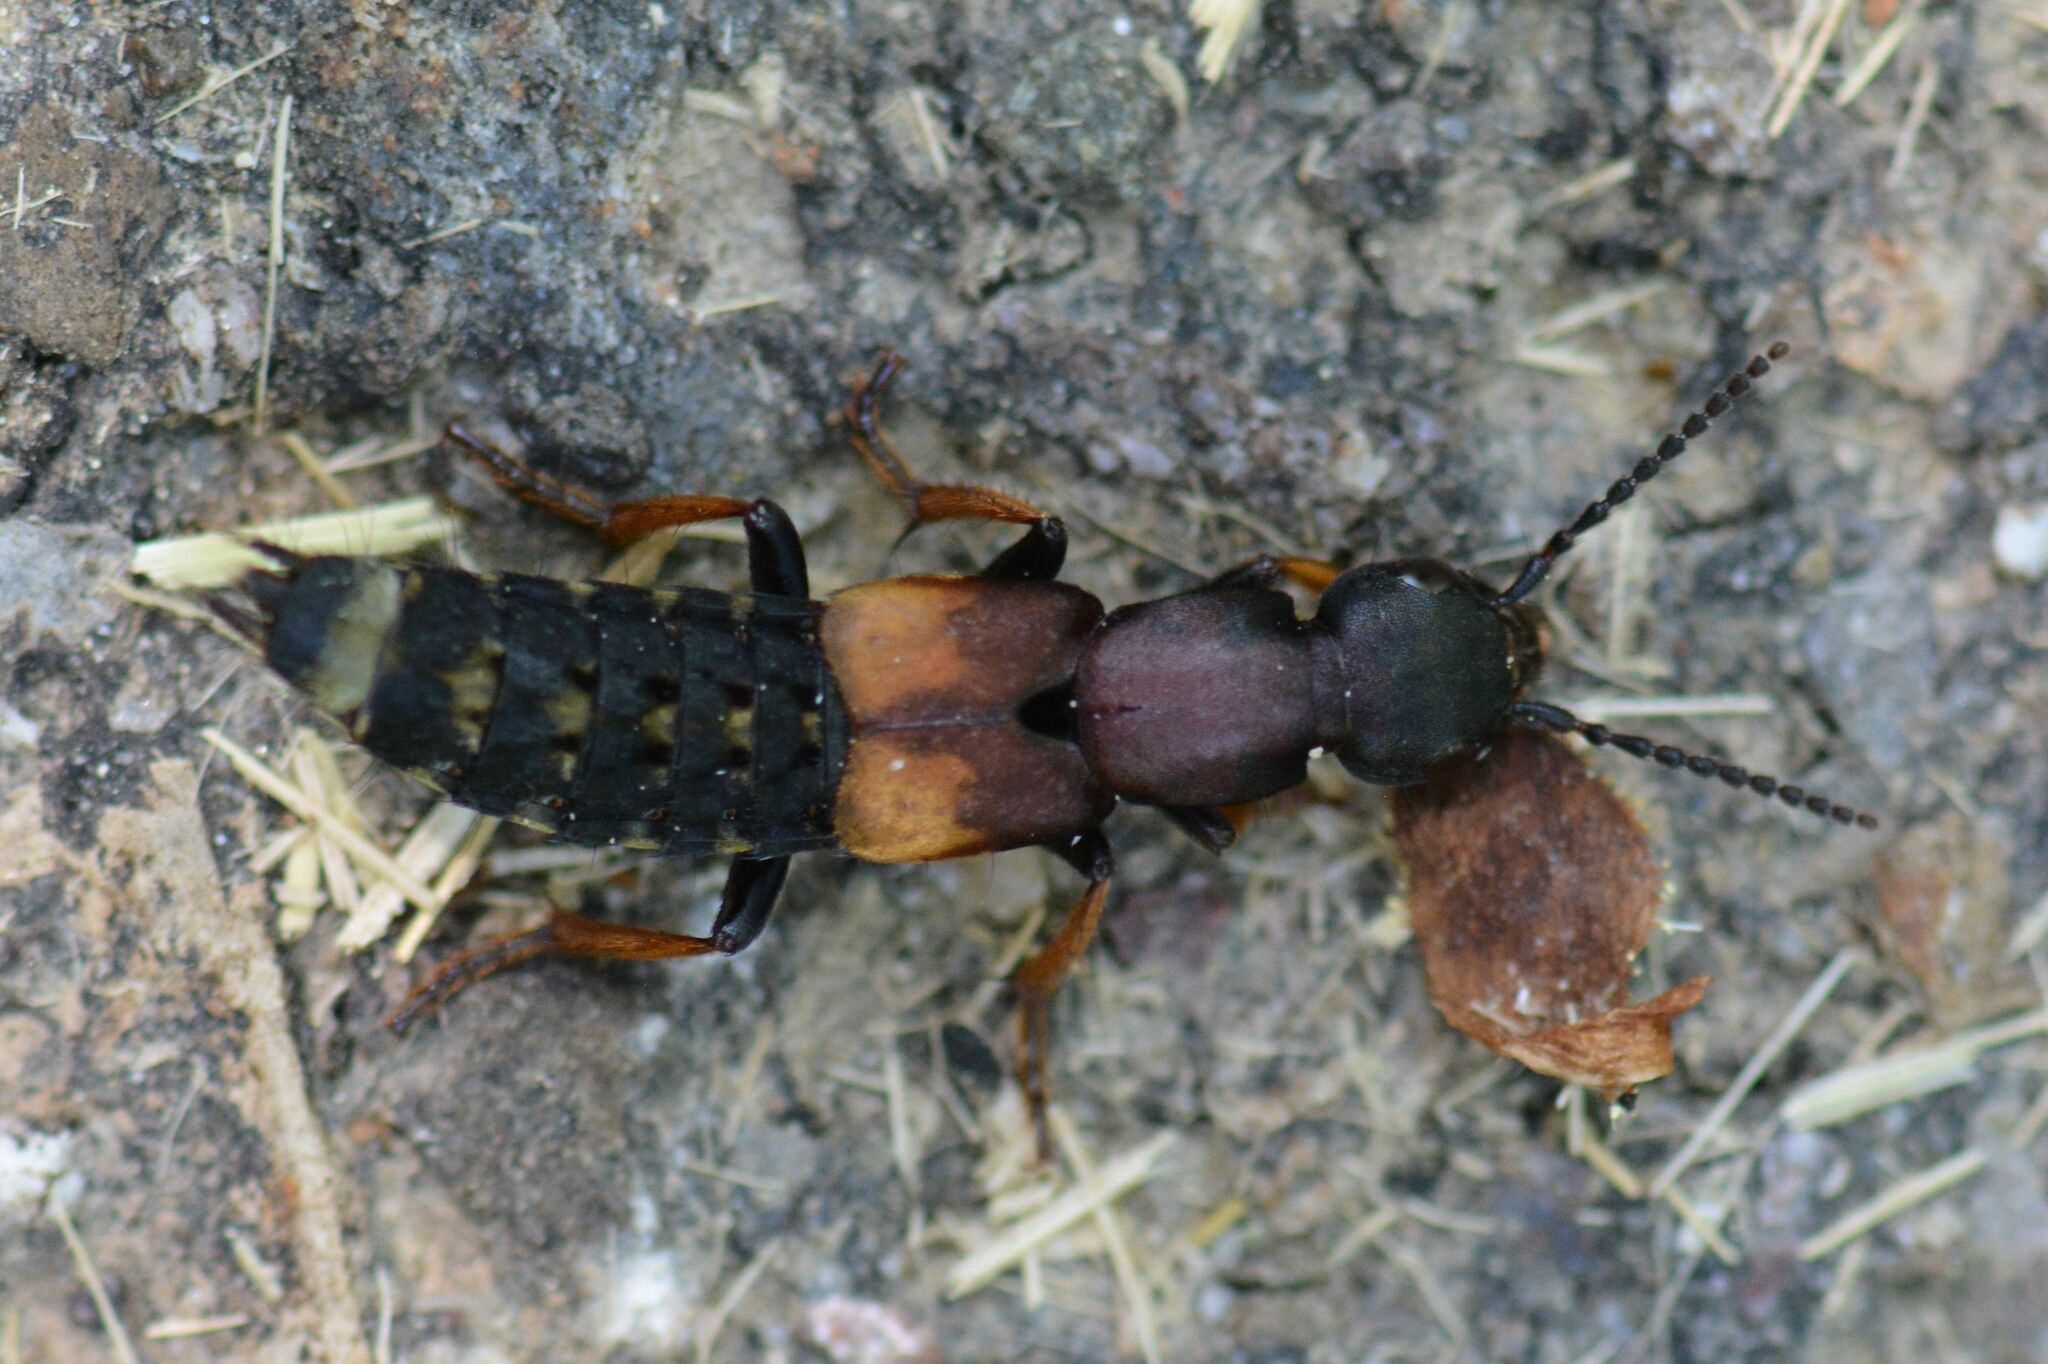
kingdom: Animalia
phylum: Arthropoda
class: Insecta
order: Coleoptera
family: Staphylinidae
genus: Dinothenarus
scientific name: Dinothenarus fossor
